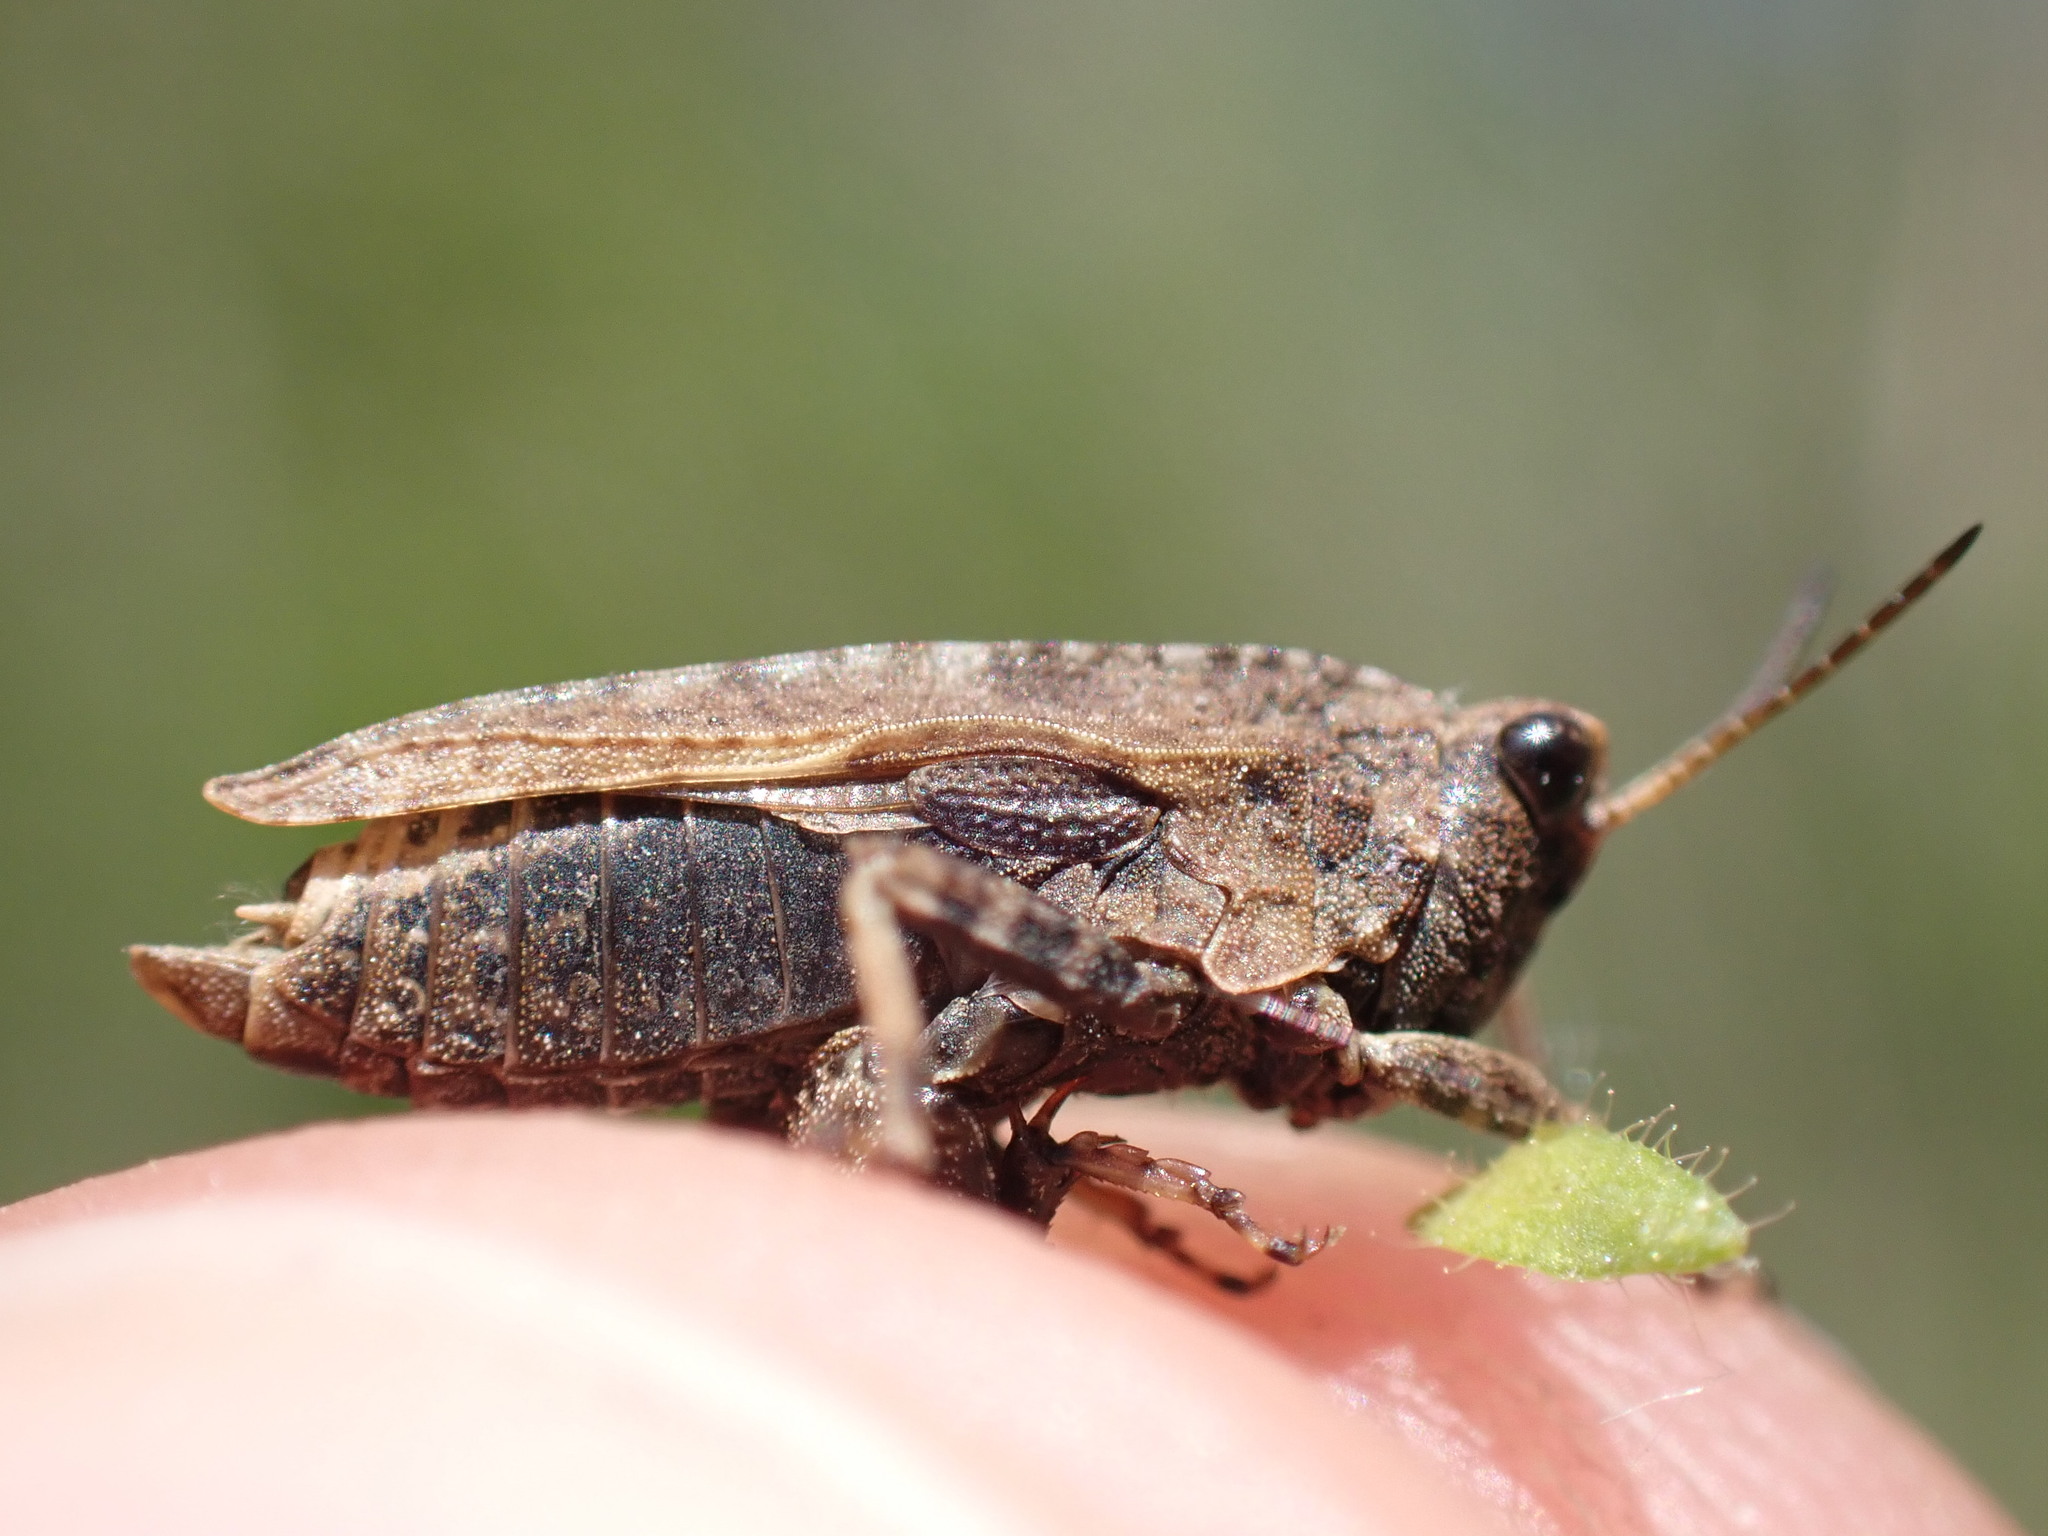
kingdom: Animalia
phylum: Arthropoda
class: Insecta
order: Orthoptera
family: Tetrigidae
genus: Tetrix
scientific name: Tetrix undulata
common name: Common groundhopper
